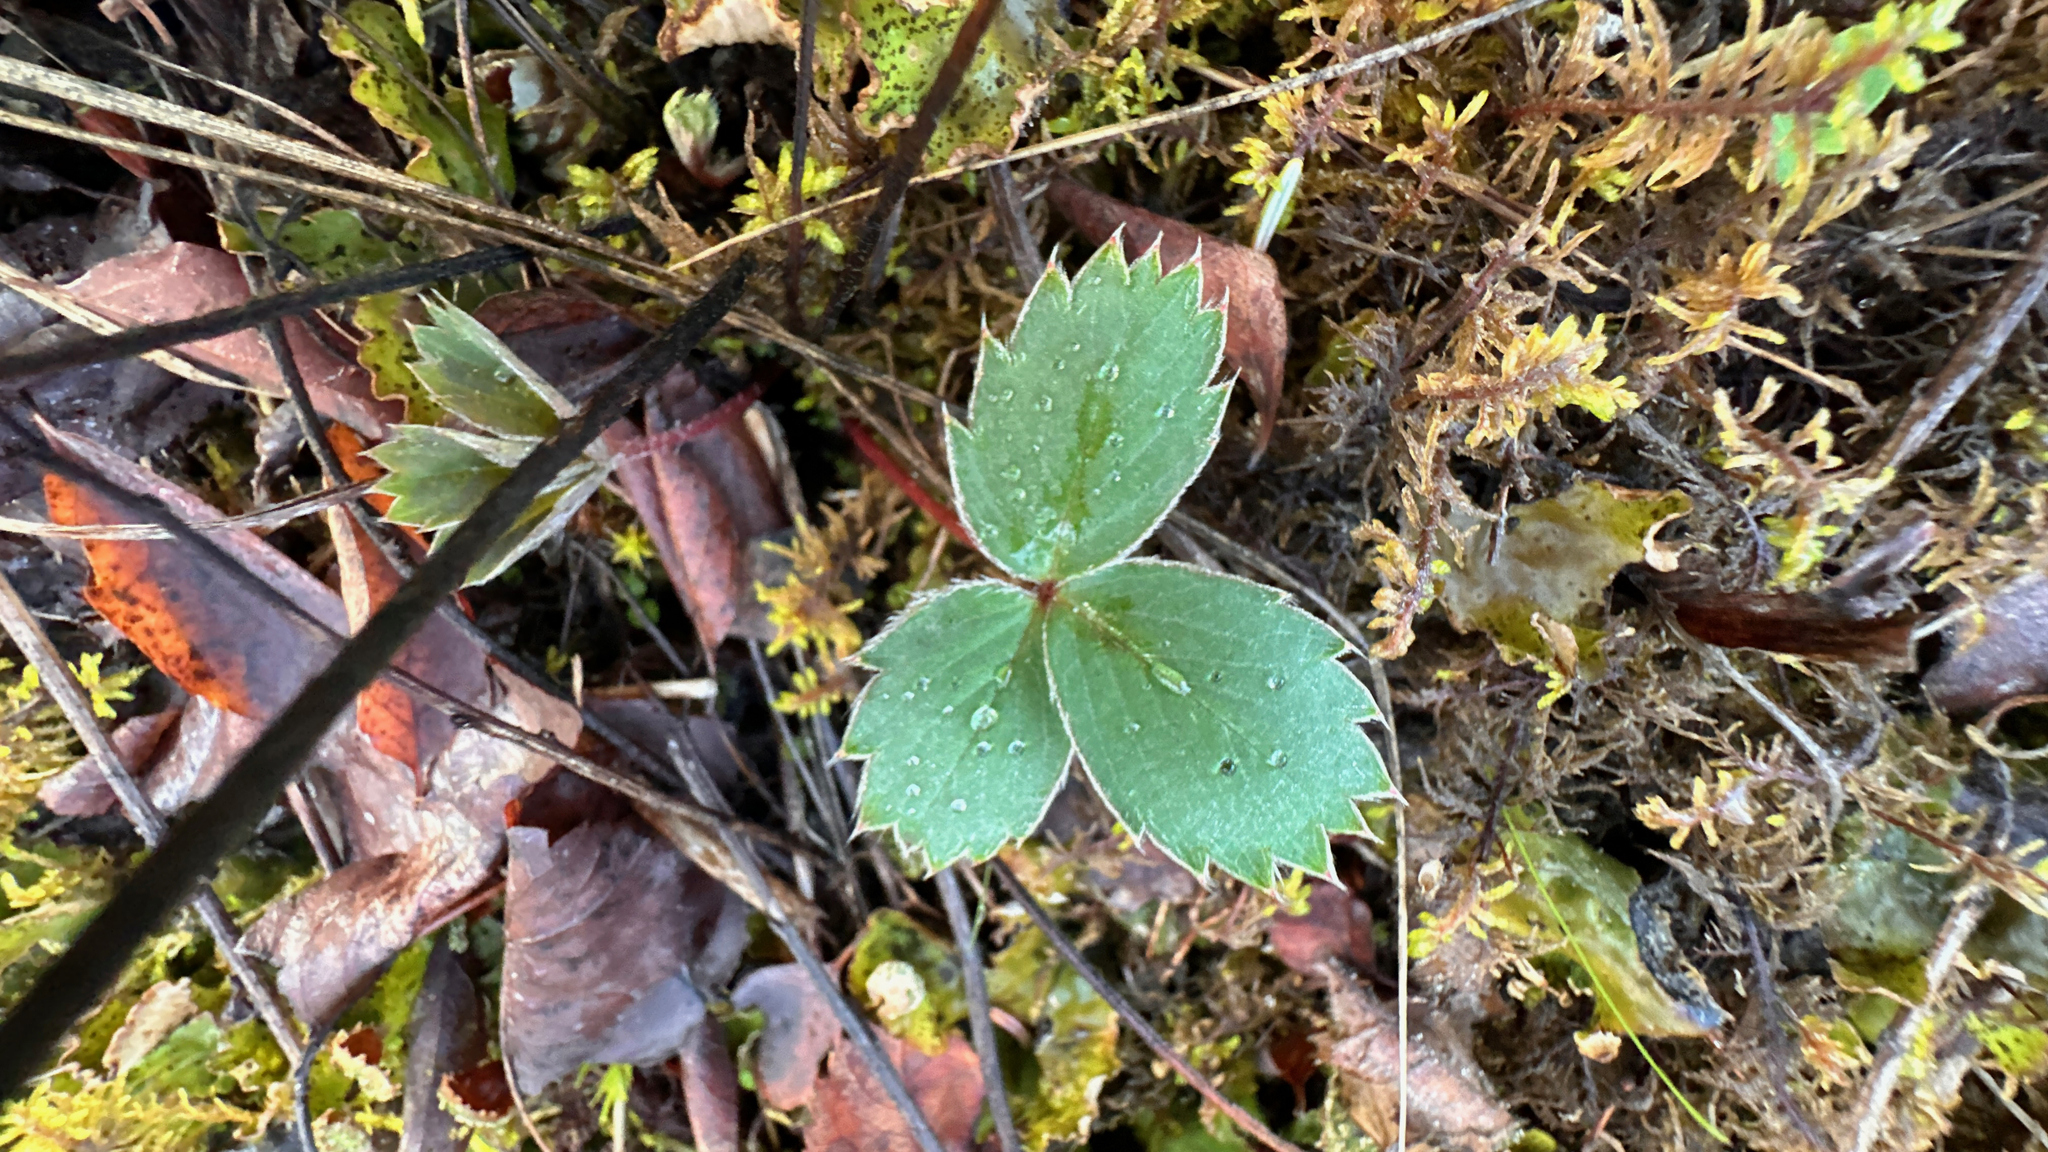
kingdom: Plantae
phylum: Tracheophyta
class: Magnoliopsida
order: Rosales
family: Rosaceae
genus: Fragaria
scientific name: Fragaria virginiana
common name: Thickleaved wild strawberry
